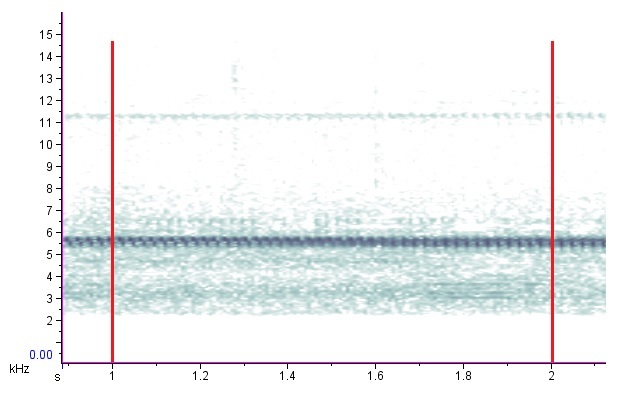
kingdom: Animalia
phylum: Arthropoda
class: Insecta
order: Orthoptera
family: Trigonidiidae
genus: Anaxipha
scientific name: Anaxipha vernalis
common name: Spring trig
